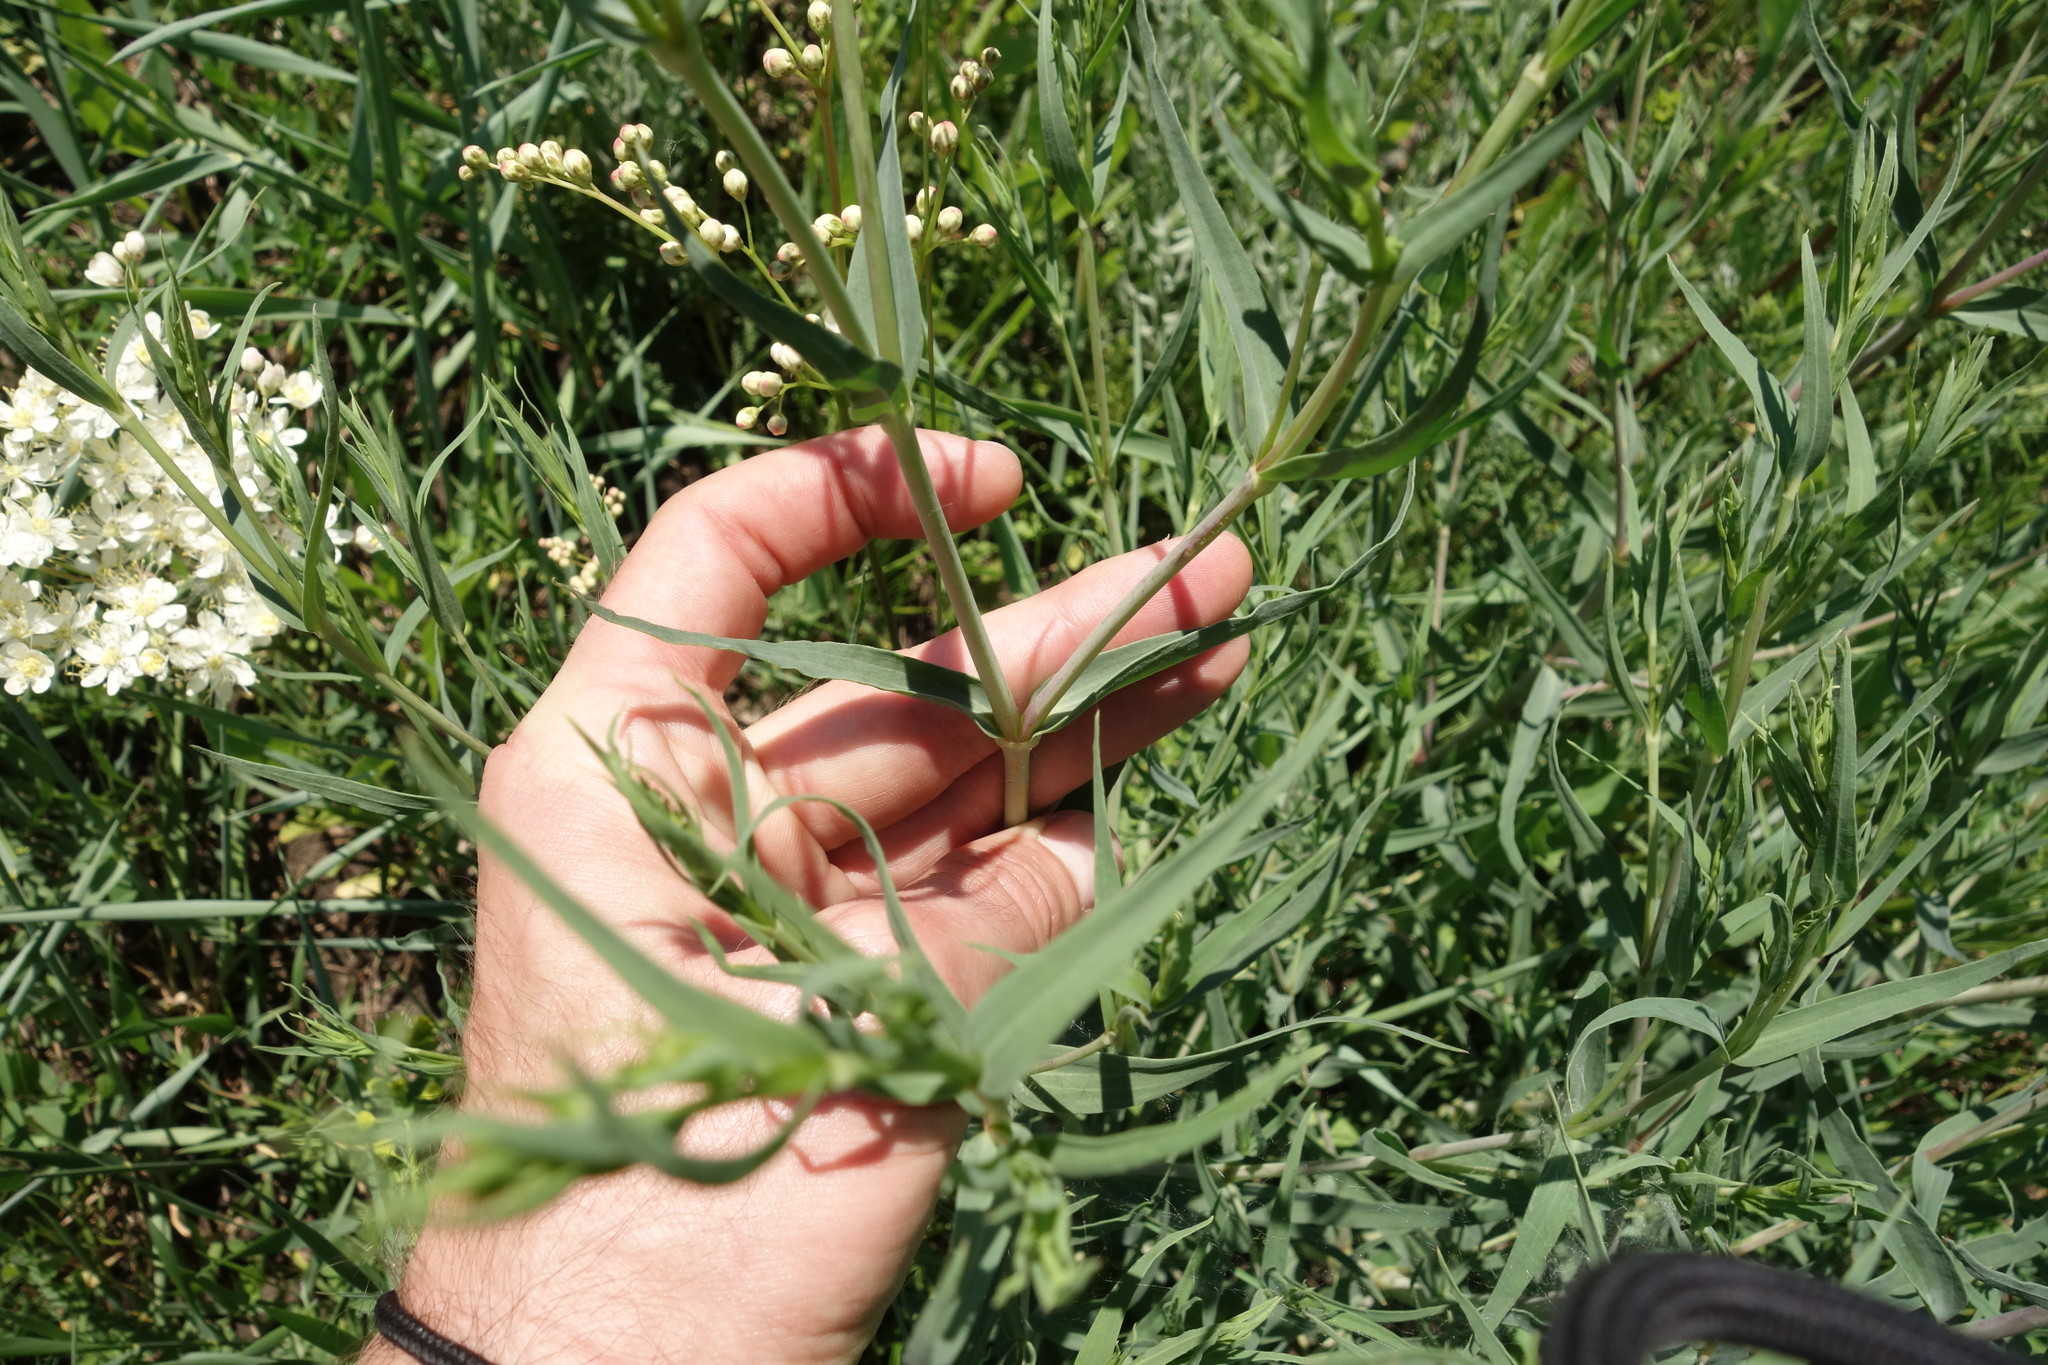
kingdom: Plantae
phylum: Tracheophyta
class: Magnoliopsida
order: Caryophyllales
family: Caryophyllaceae
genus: Gypsophila
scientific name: Gypsophila paniculata
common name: Baby's-breath
